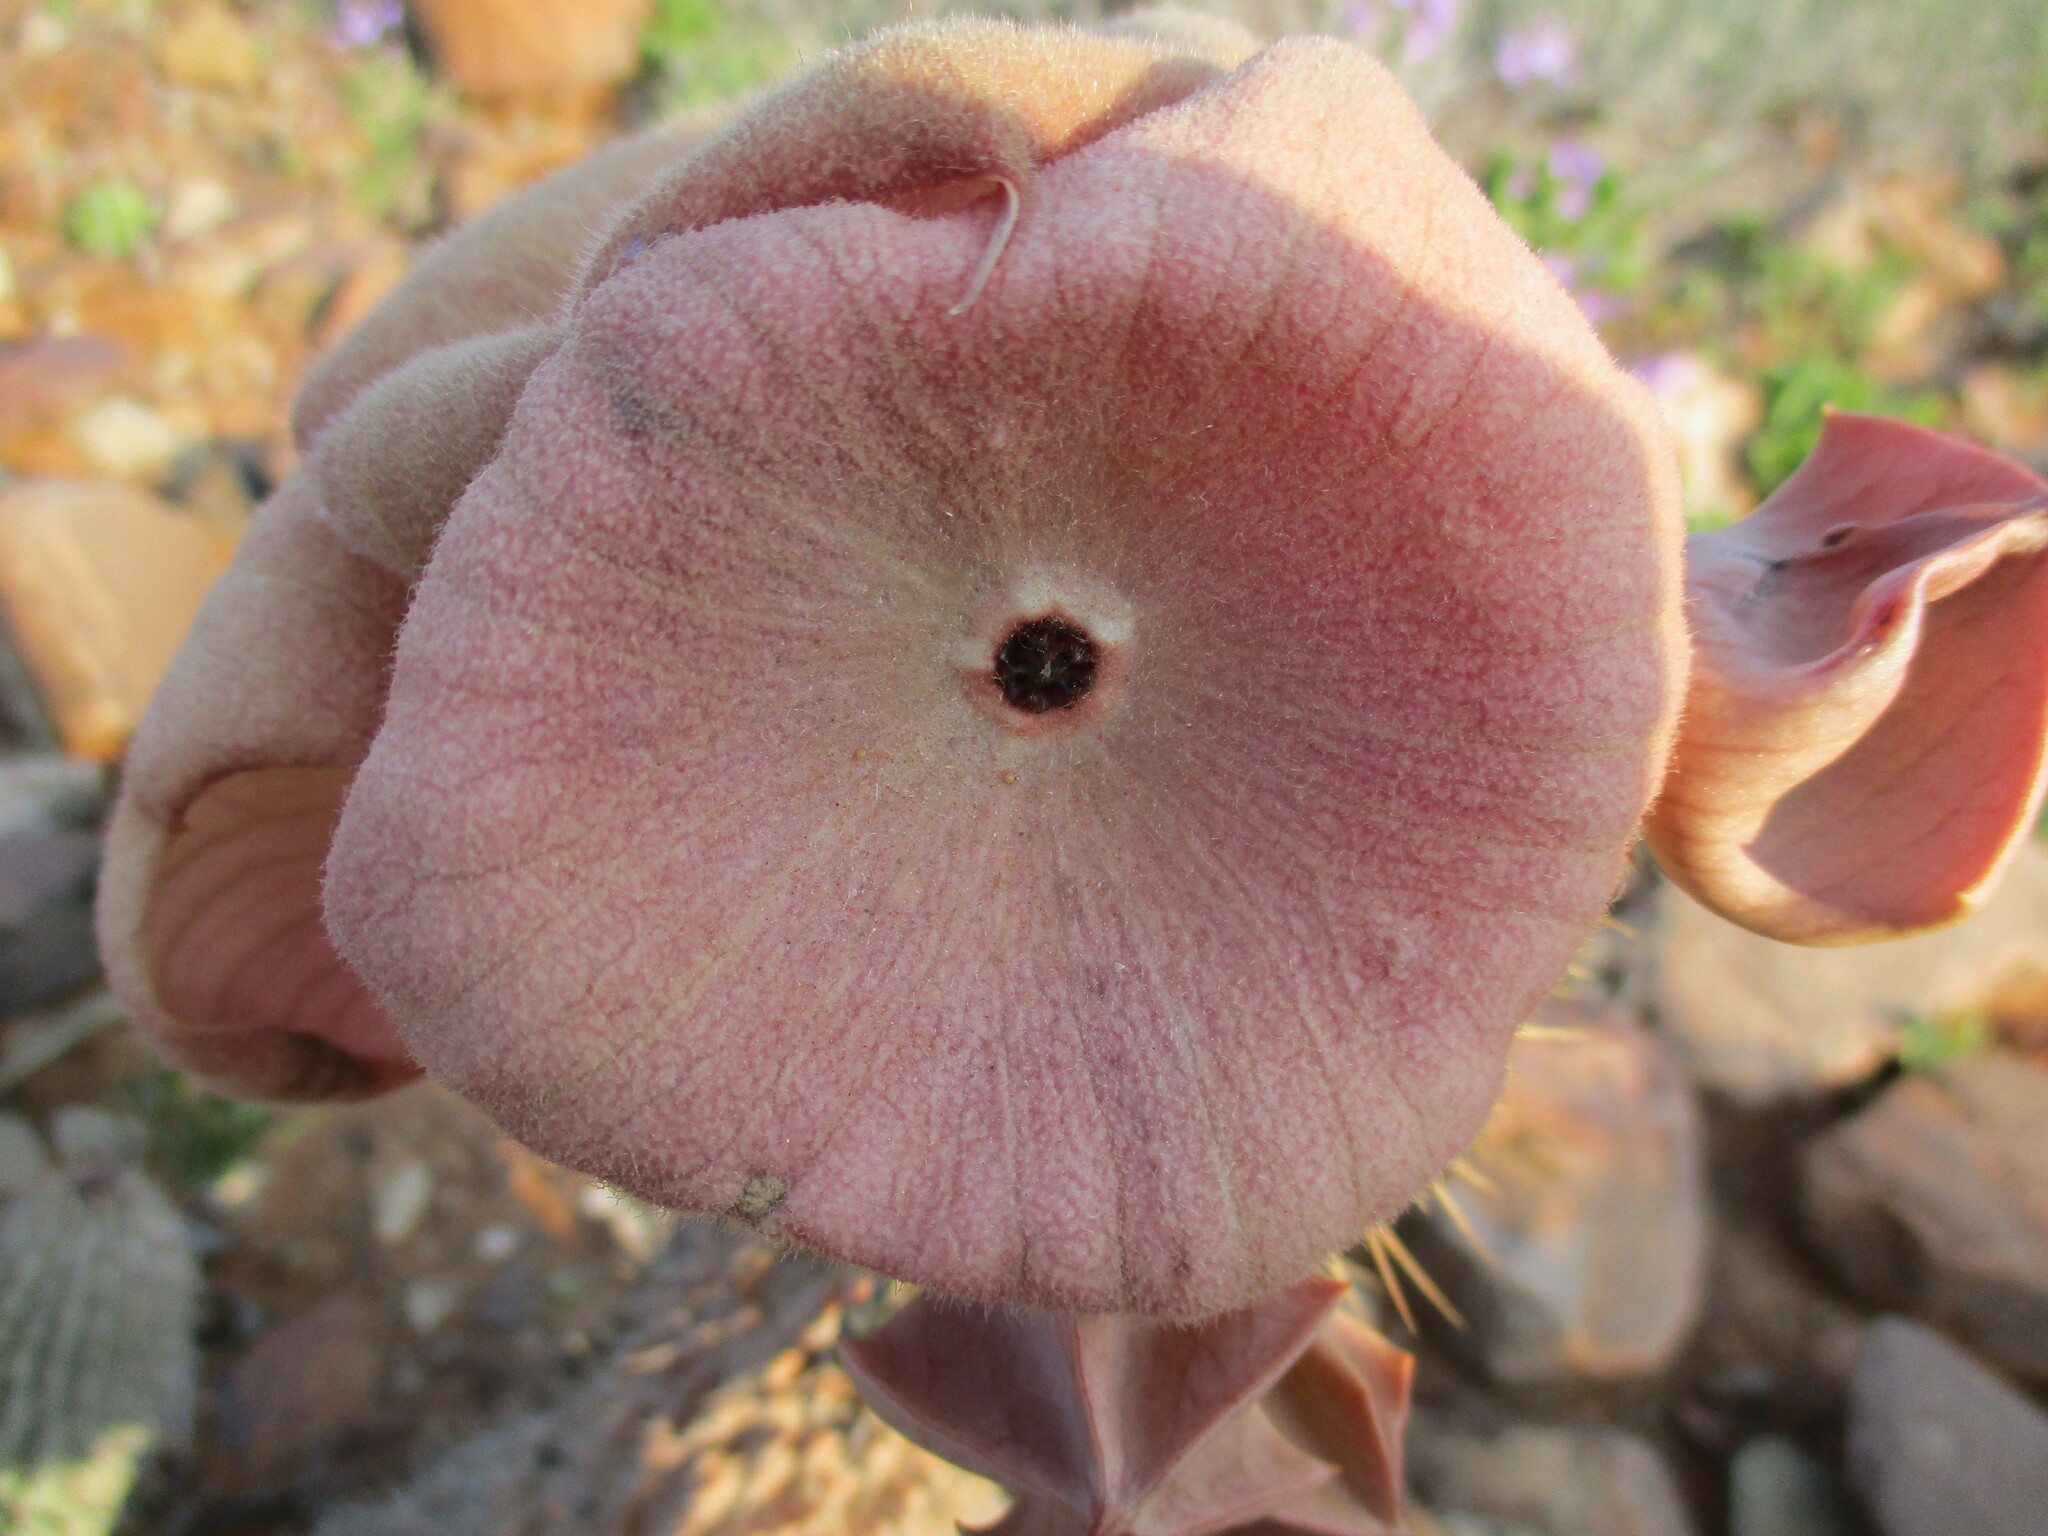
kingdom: Plantae
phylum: Tracheophyta
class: Magnoliopsida
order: Gentianales
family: Apocynaceae
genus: Hoodia
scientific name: Hoodia gordonii
